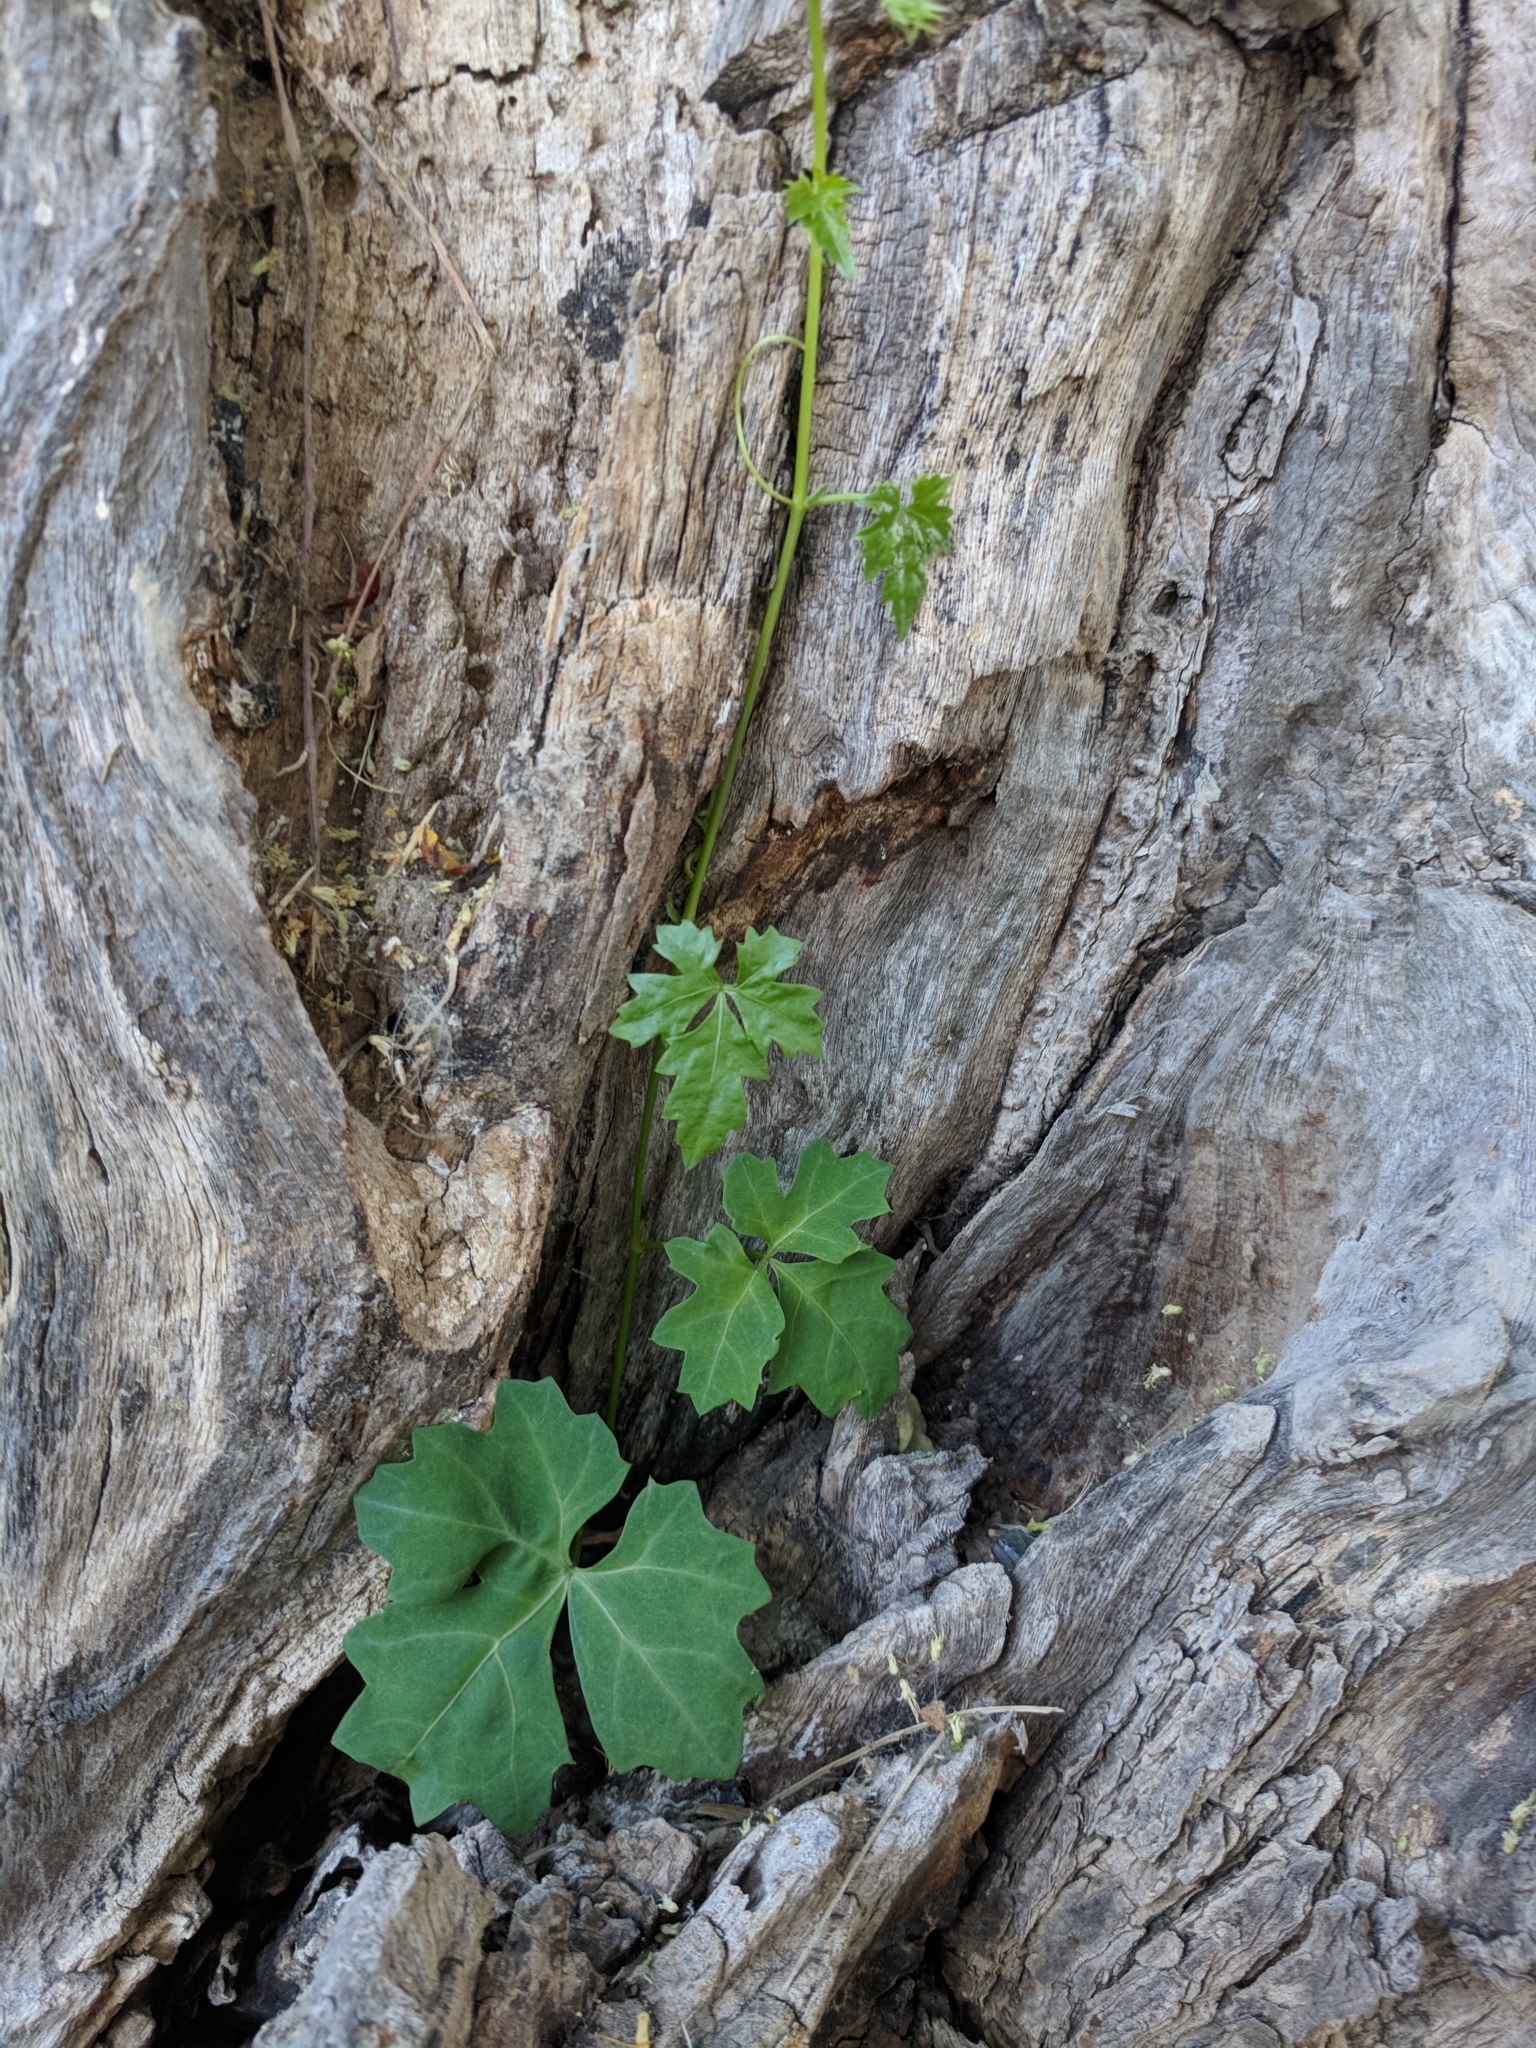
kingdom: Plantae
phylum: Tracheophyta
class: Magnoliopsida
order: Vitales
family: Vitaceae
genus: Cissus
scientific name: Cissus trifoliata
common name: Vine-sorrel
